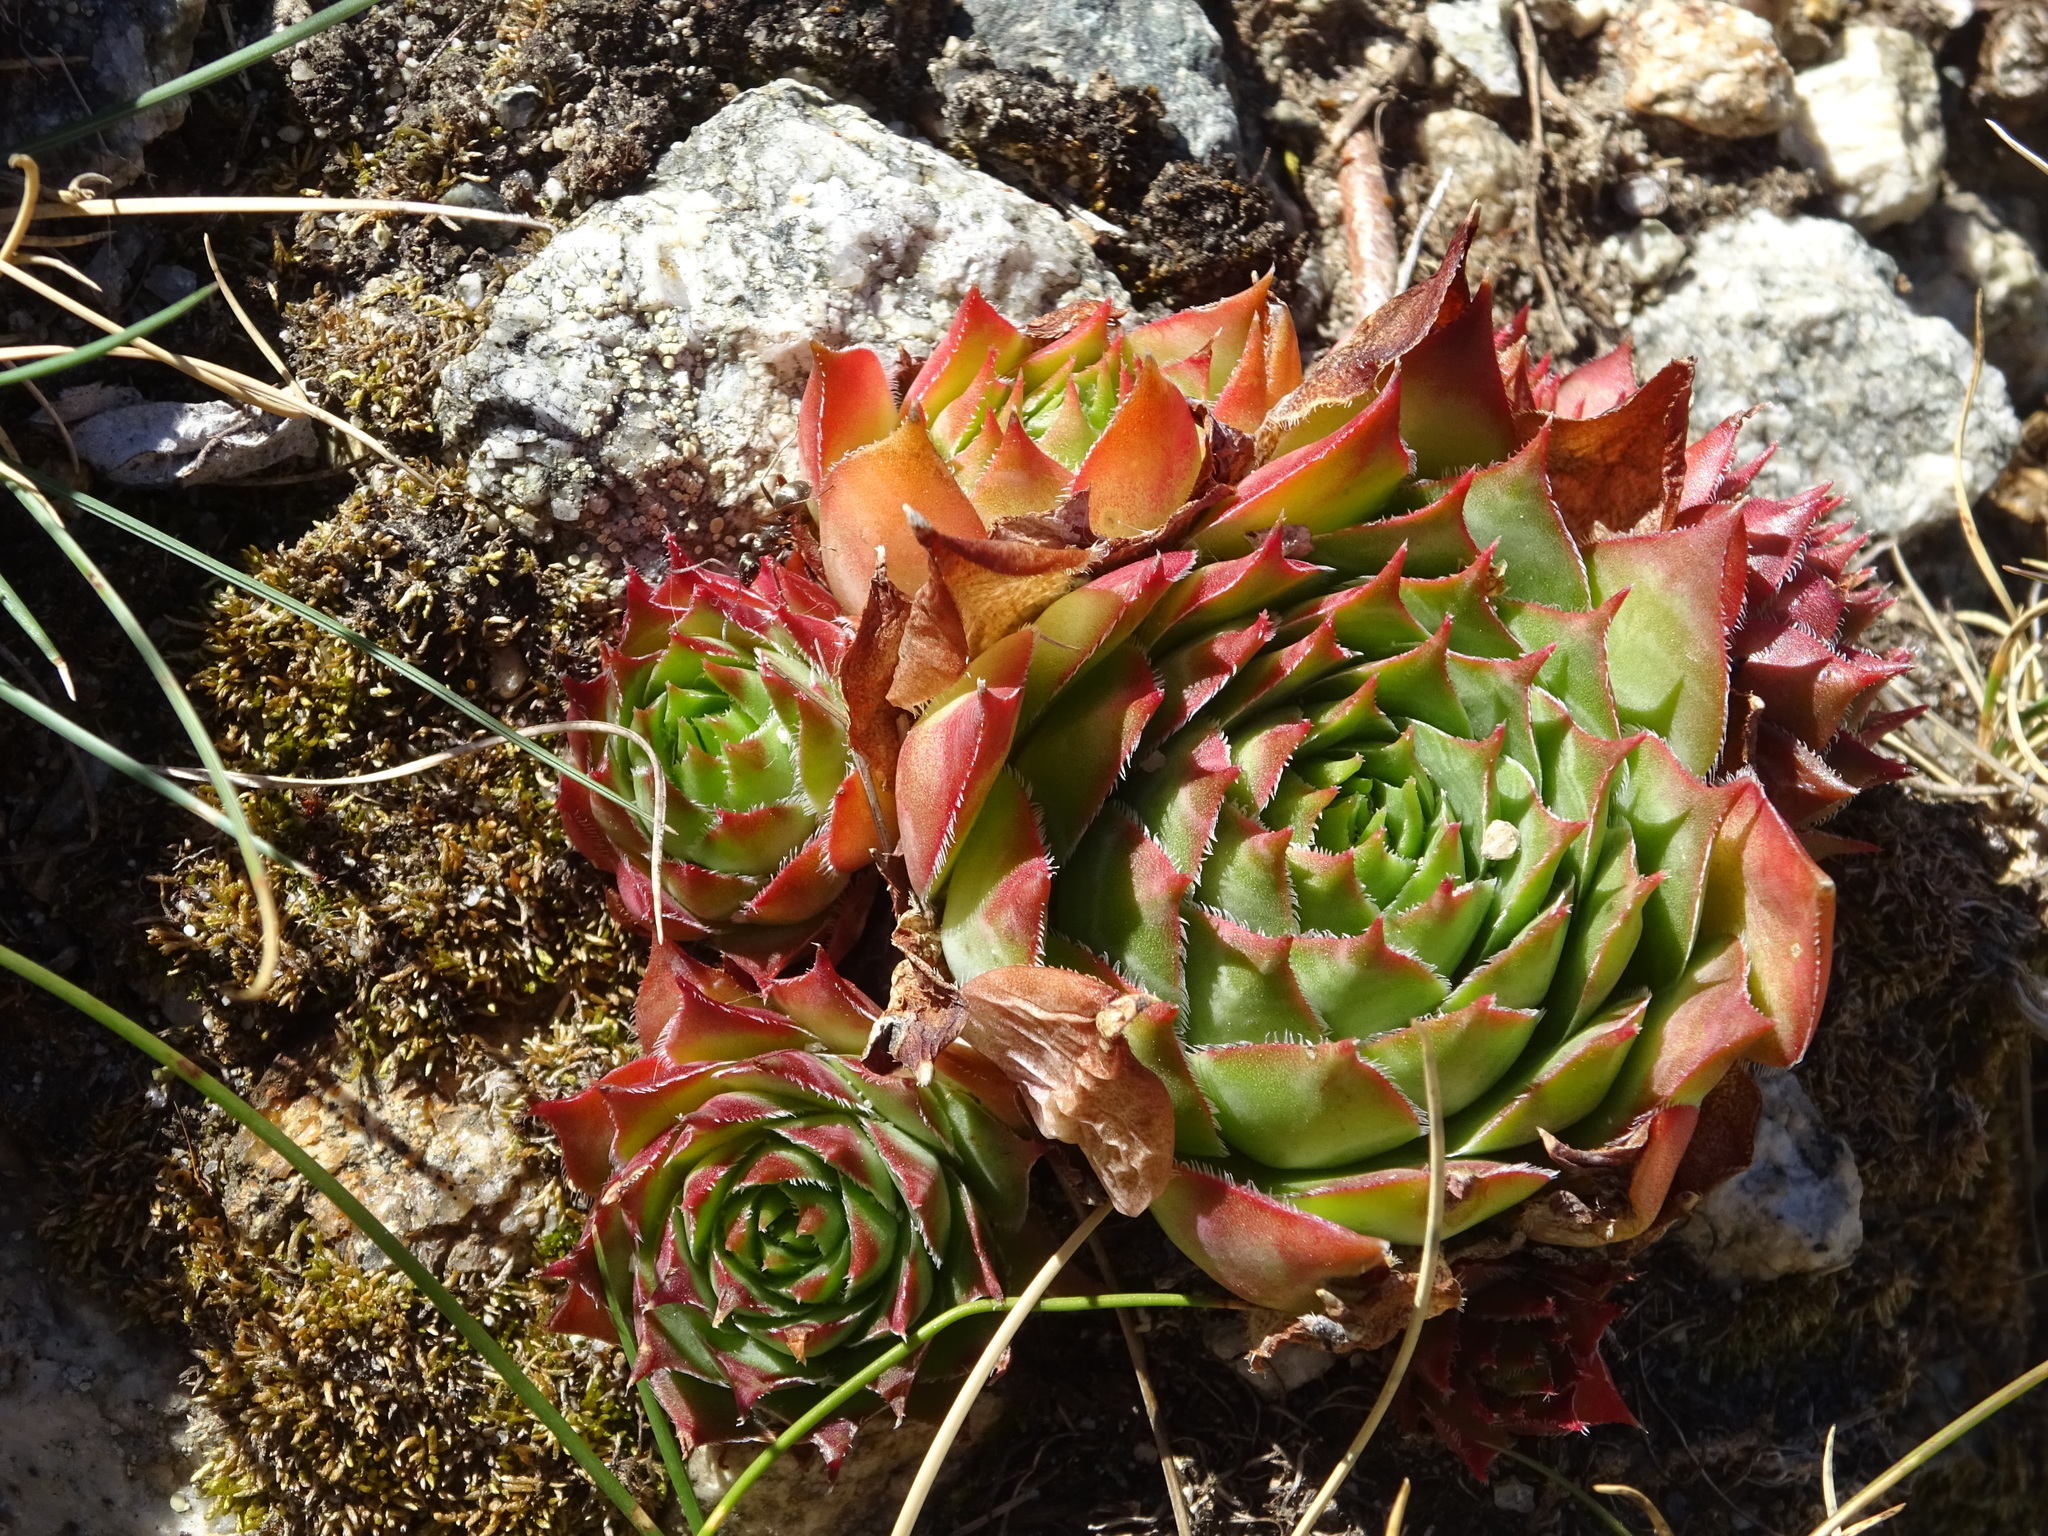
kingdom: Plantae
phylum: Tracheophyta
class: Magnoliopsida
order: Saxifragales
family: Crassulaceae
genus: Sempervivum
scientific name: Sempervivum tectorum
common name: House-leek
